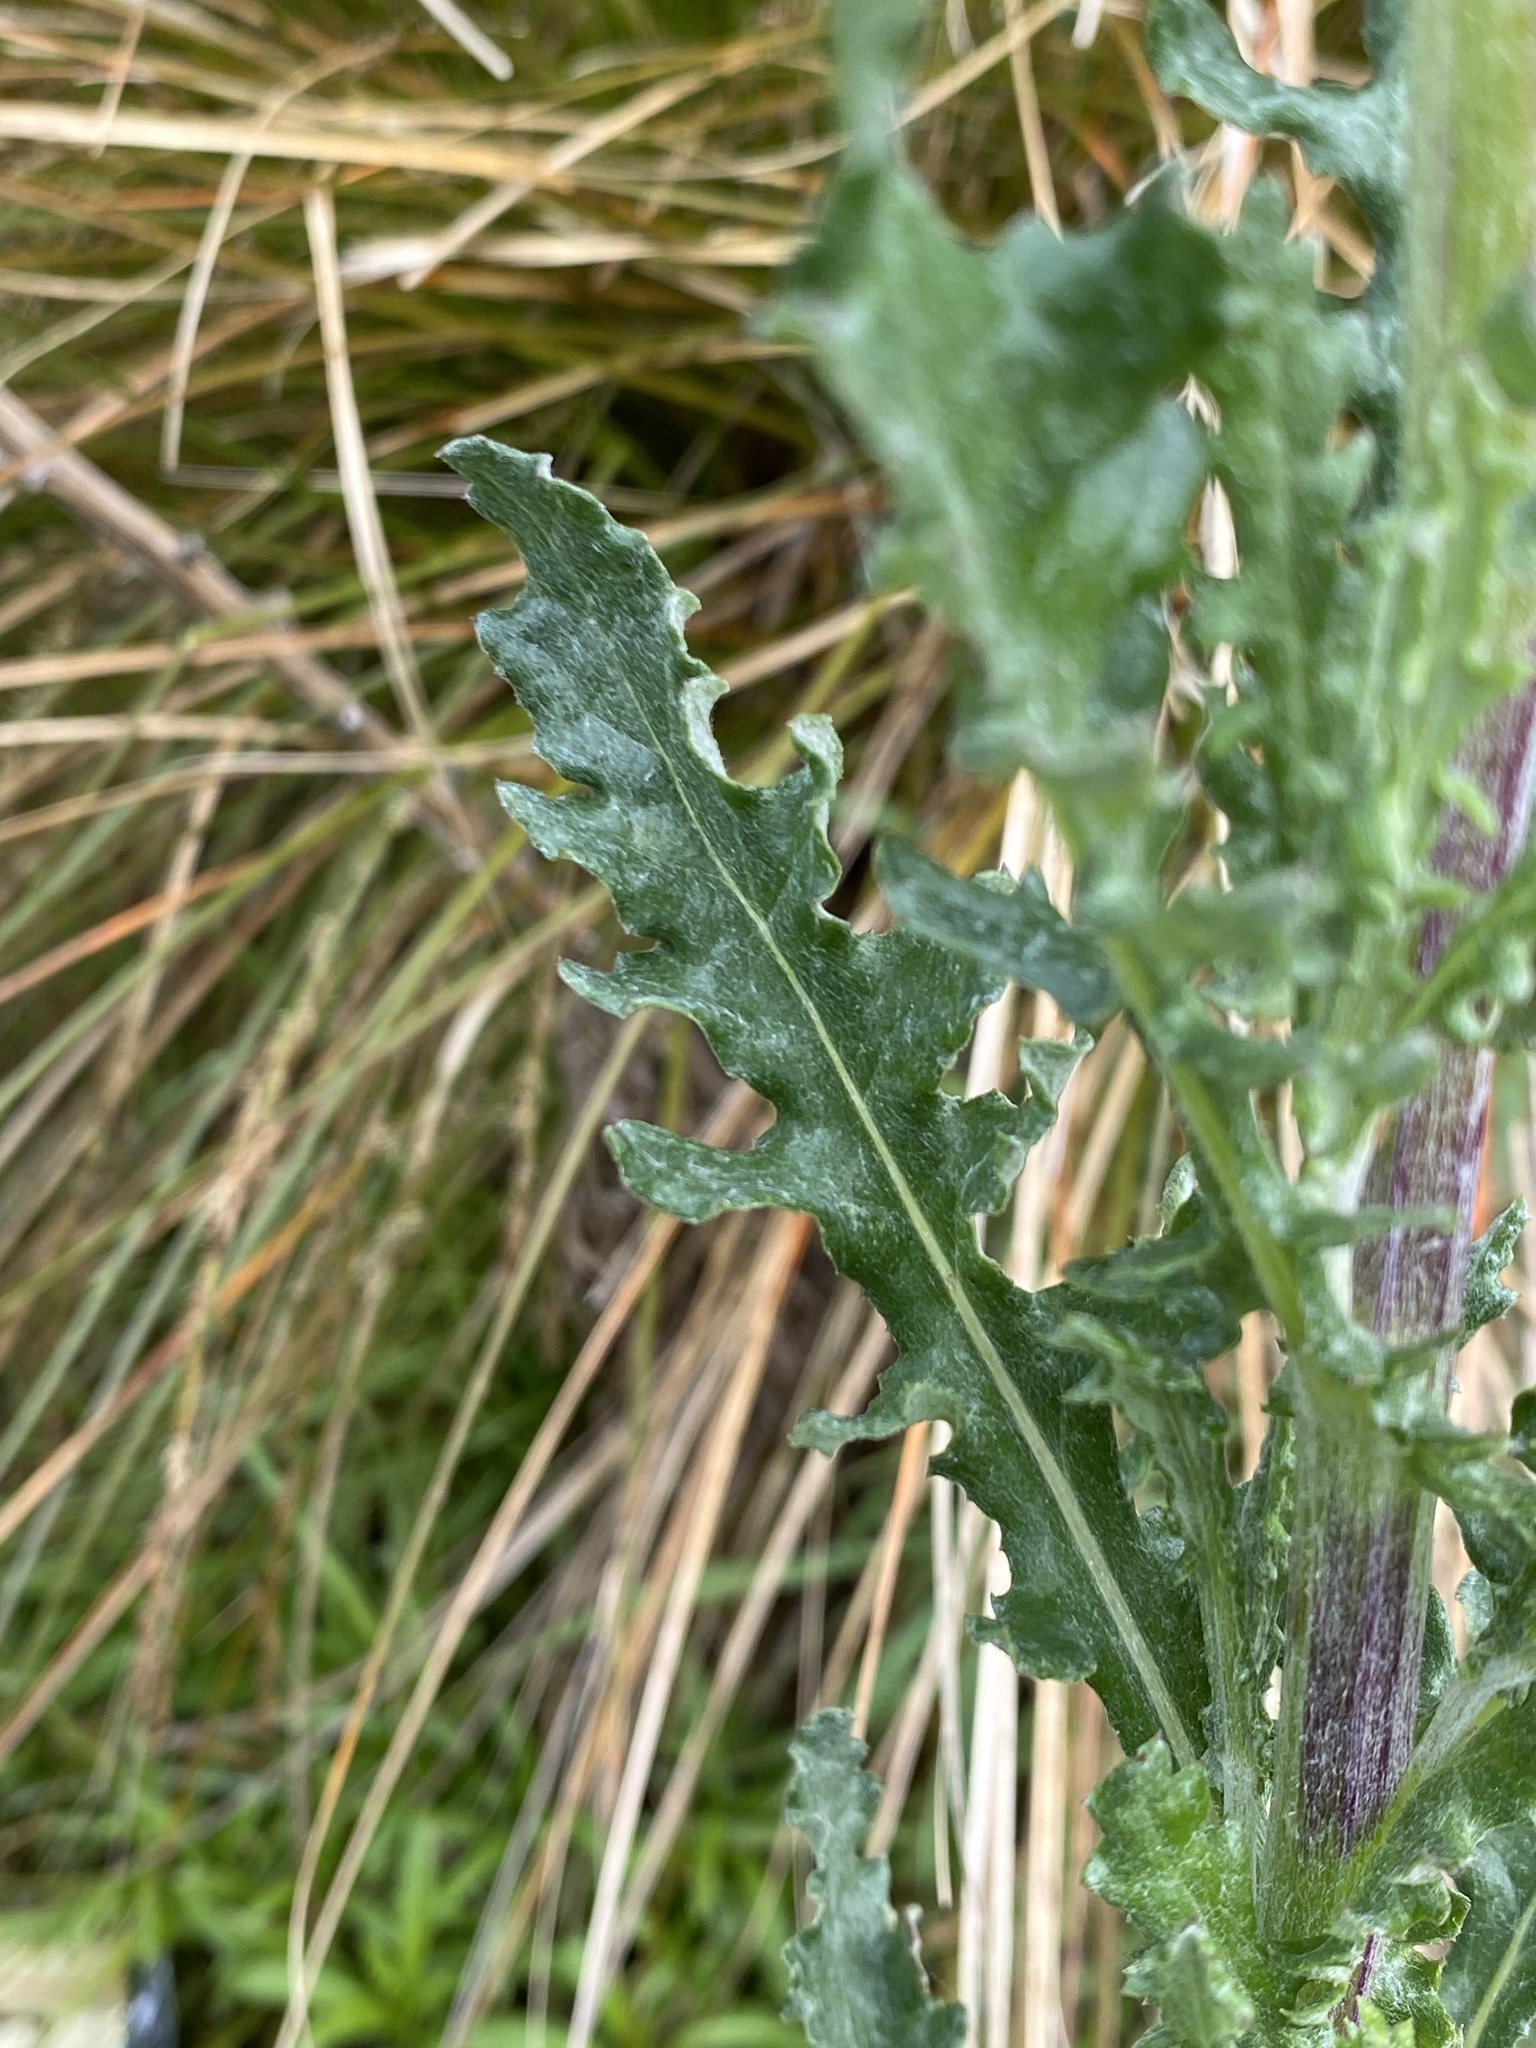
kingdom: Plantae
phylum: Tracheophyta
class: Magnoliopsida
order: Asterales
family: Asteraceae
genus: Senecio
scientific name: Senecio glomeratus
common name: Cutleaf burnweed
